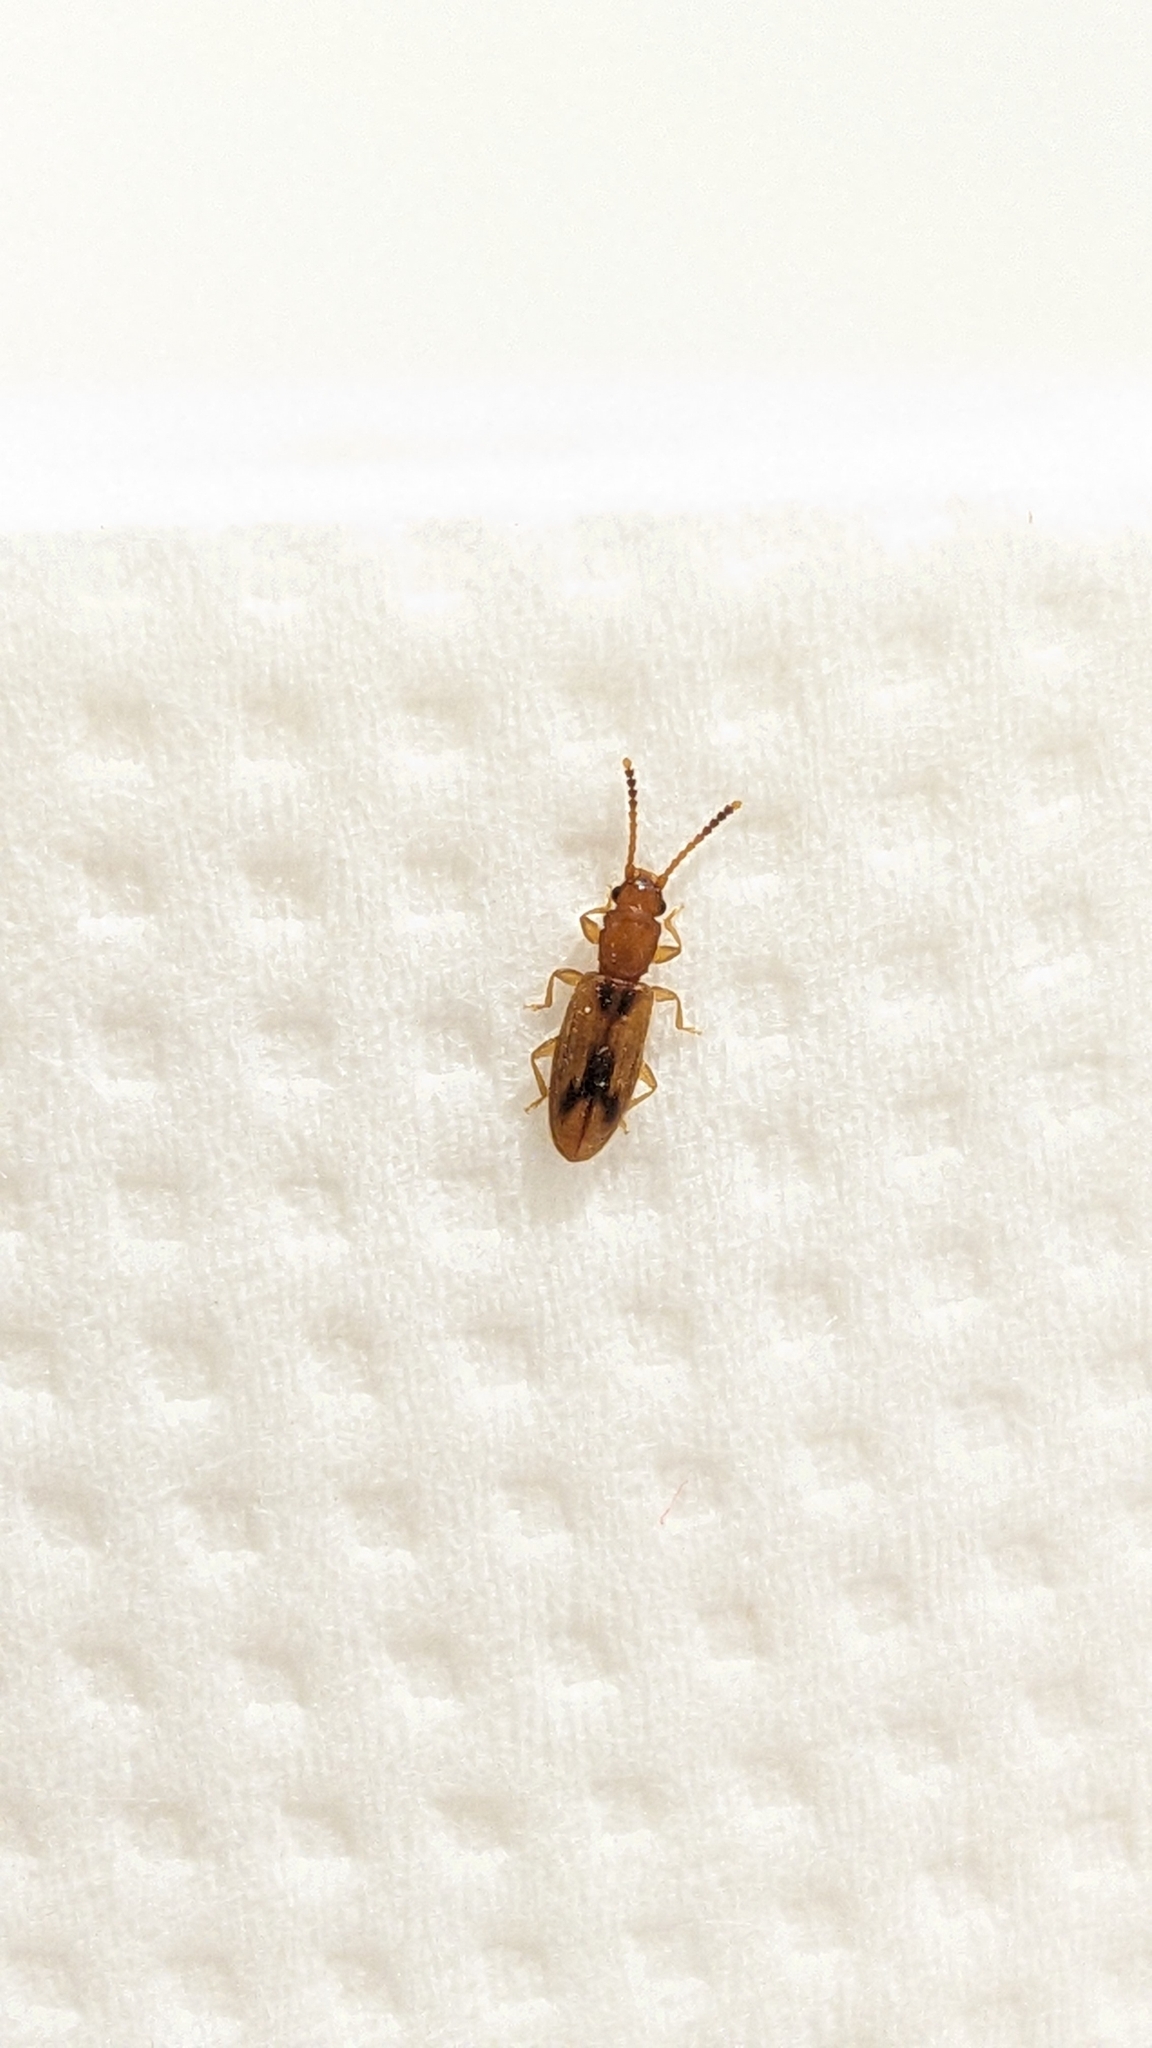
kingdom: Animalia
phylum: Arthropoda
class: Insecta
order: Coleoptera
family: Silvanidae
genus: Cryptamorpha
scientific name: Cryptamorpha desjardinsi
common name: Cryptamorpha
